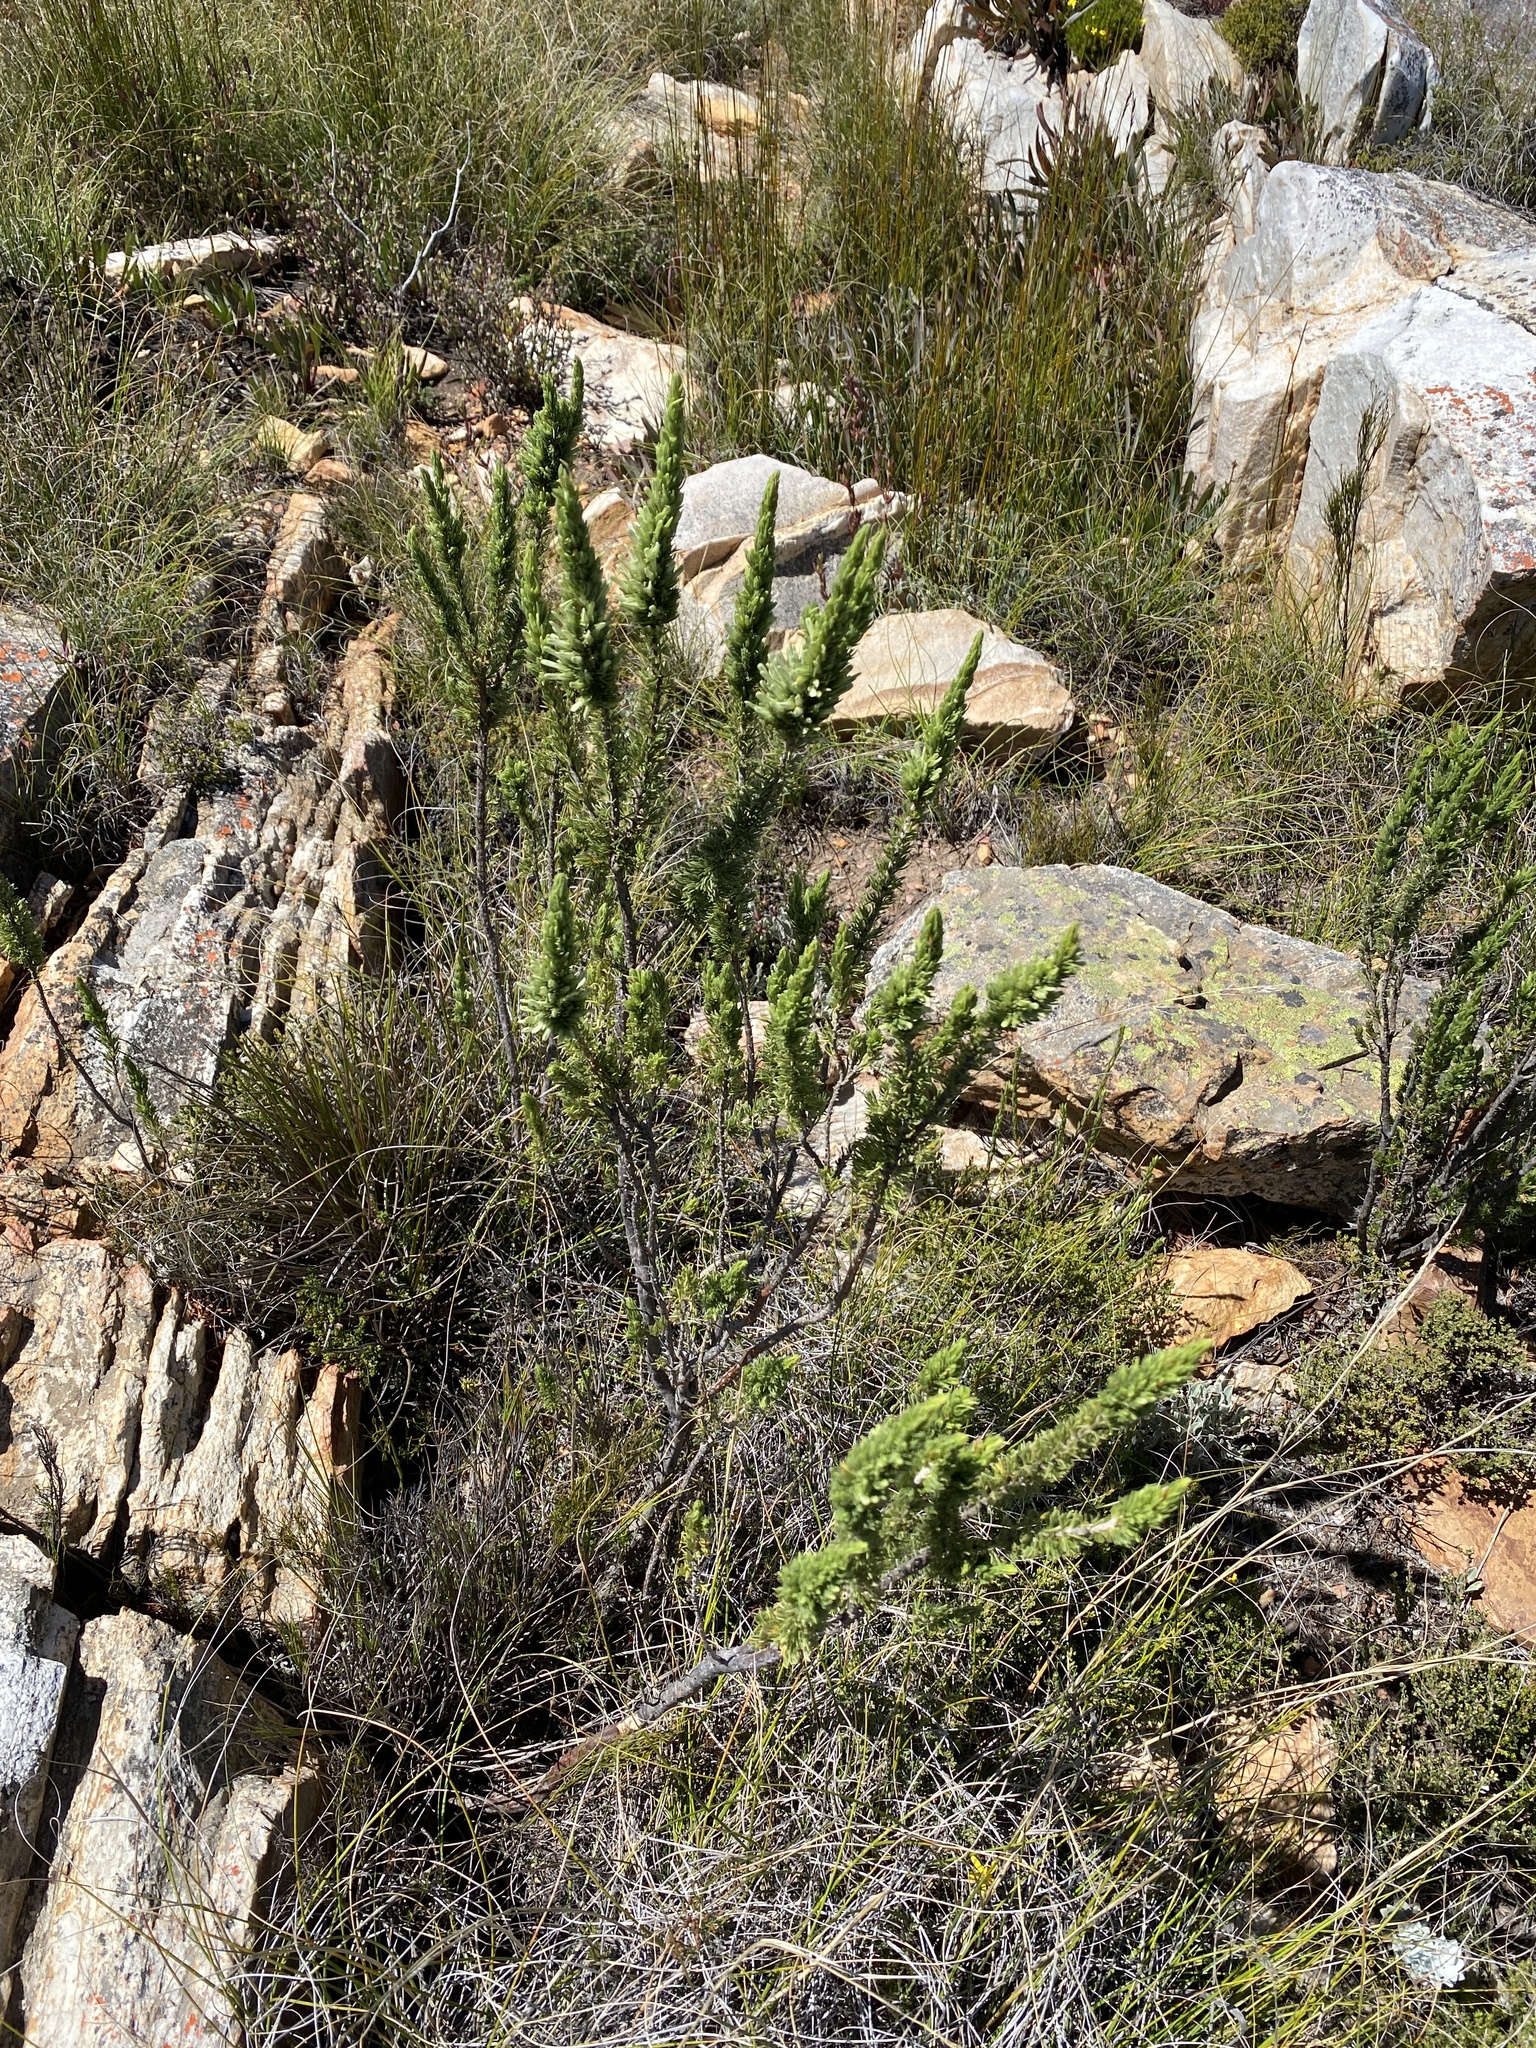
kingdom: Plantae
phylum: Tracheophyta
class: Magnoliopsida
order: Ericales
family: Ericaceae
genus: Erica
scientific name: Erica nabea
